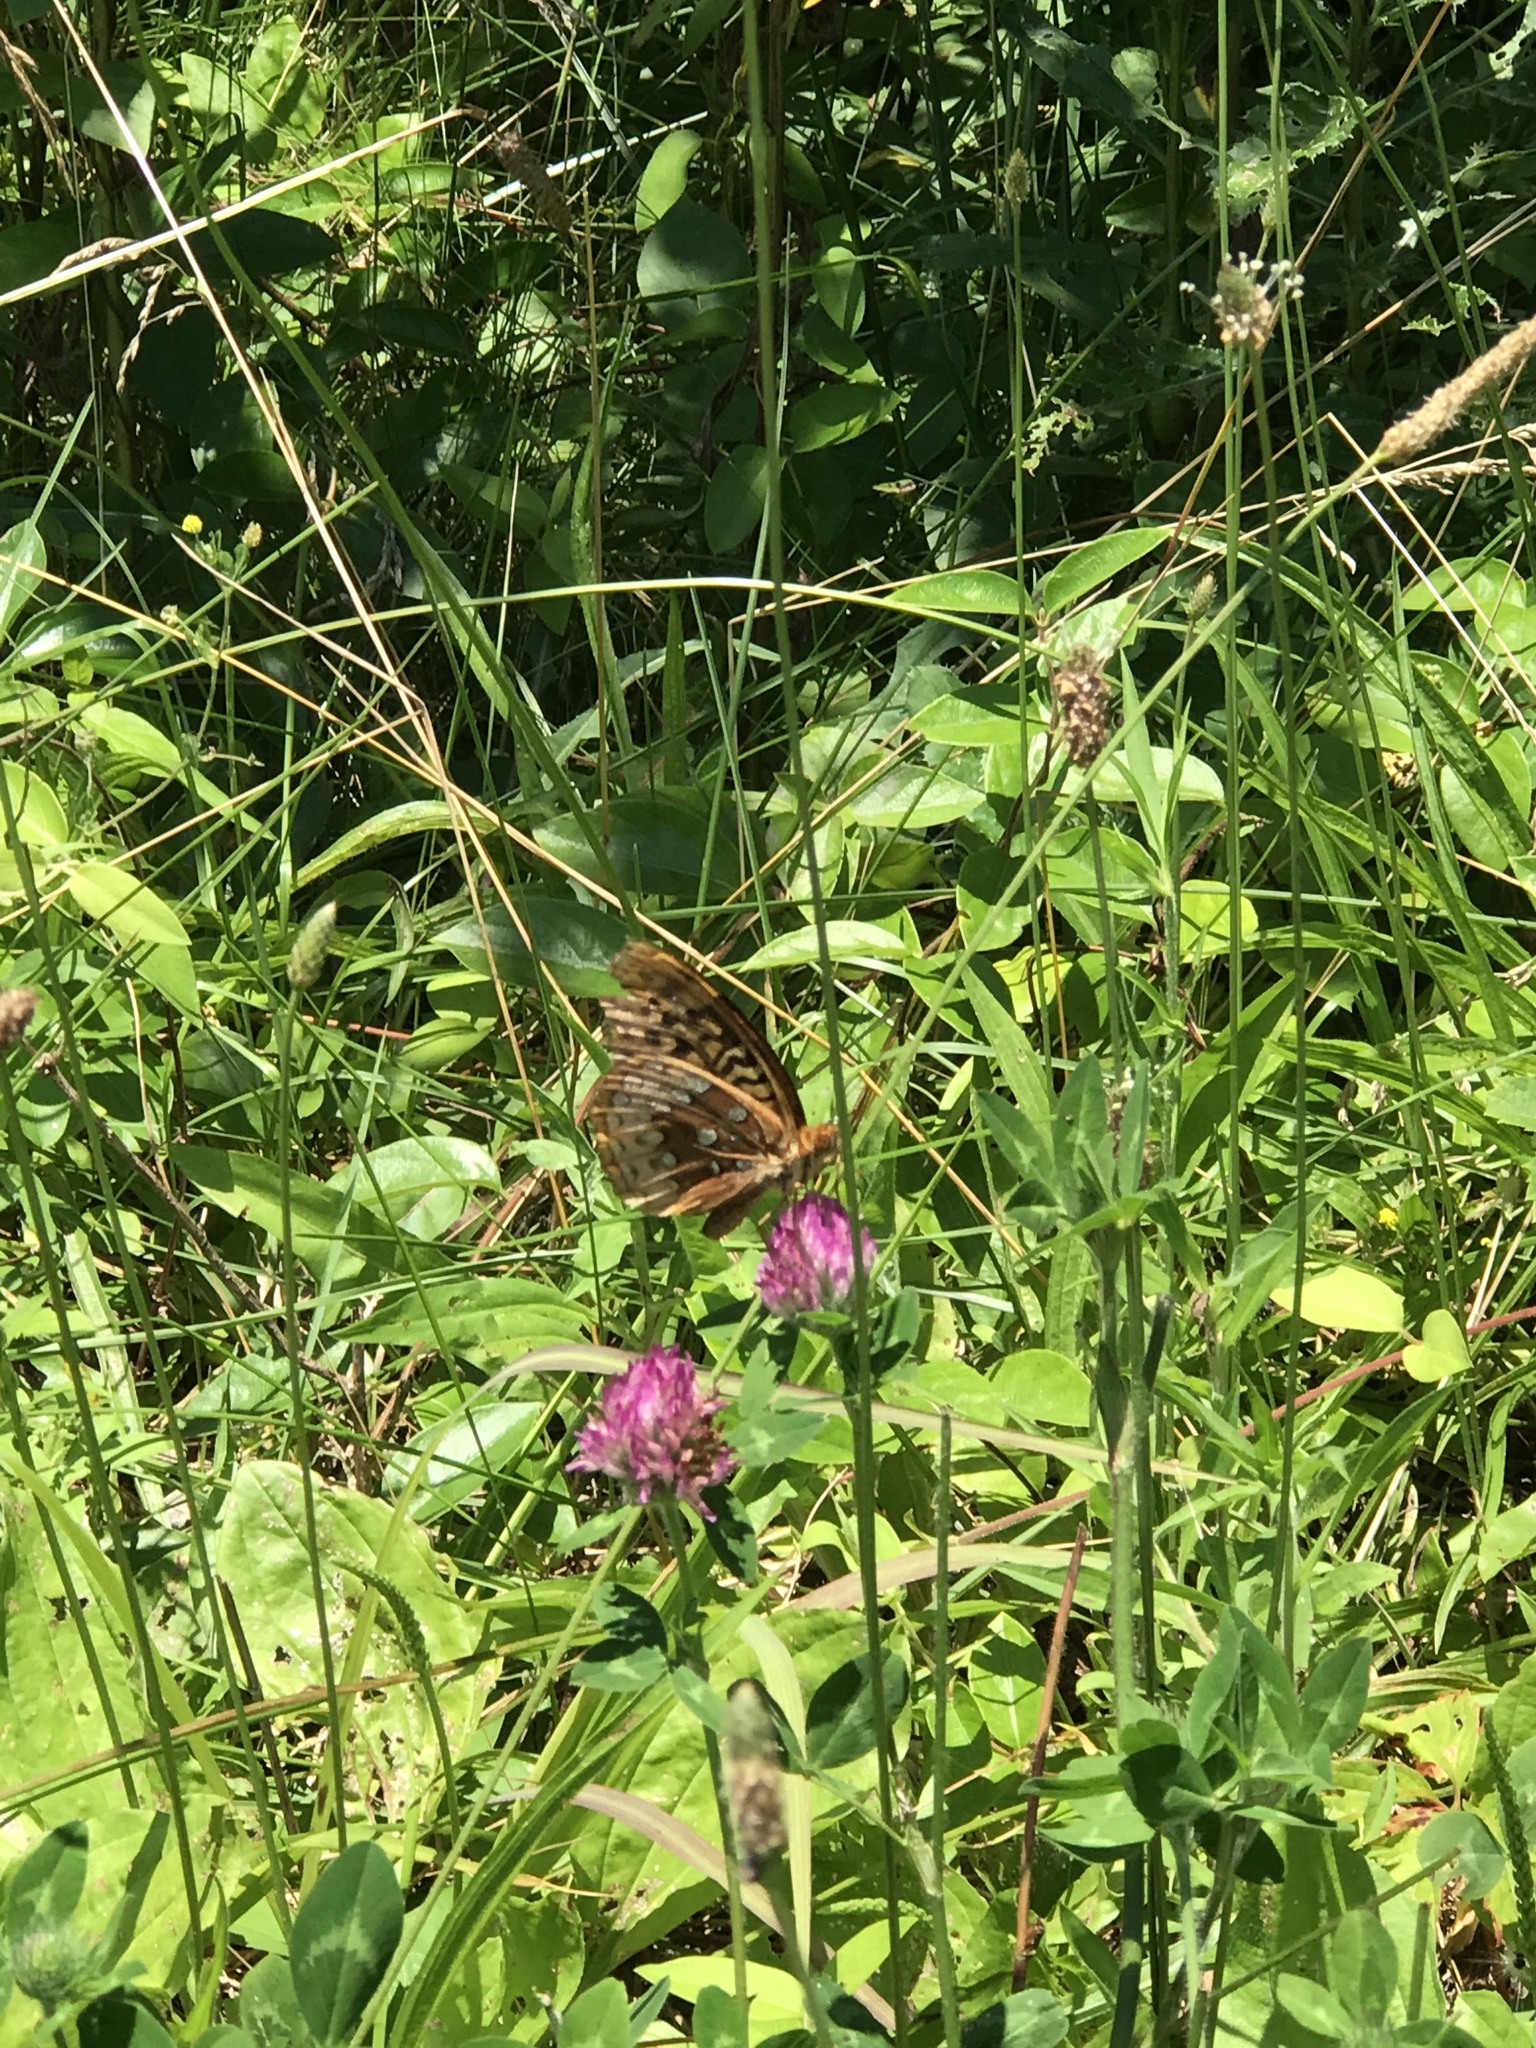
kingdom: Animalia
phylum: Arthropoda
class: Insecta
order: Lepidoptera
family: Nymphalidae
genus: Speyeria
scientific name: Speyeria cybele
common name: Great spangled fritillary
